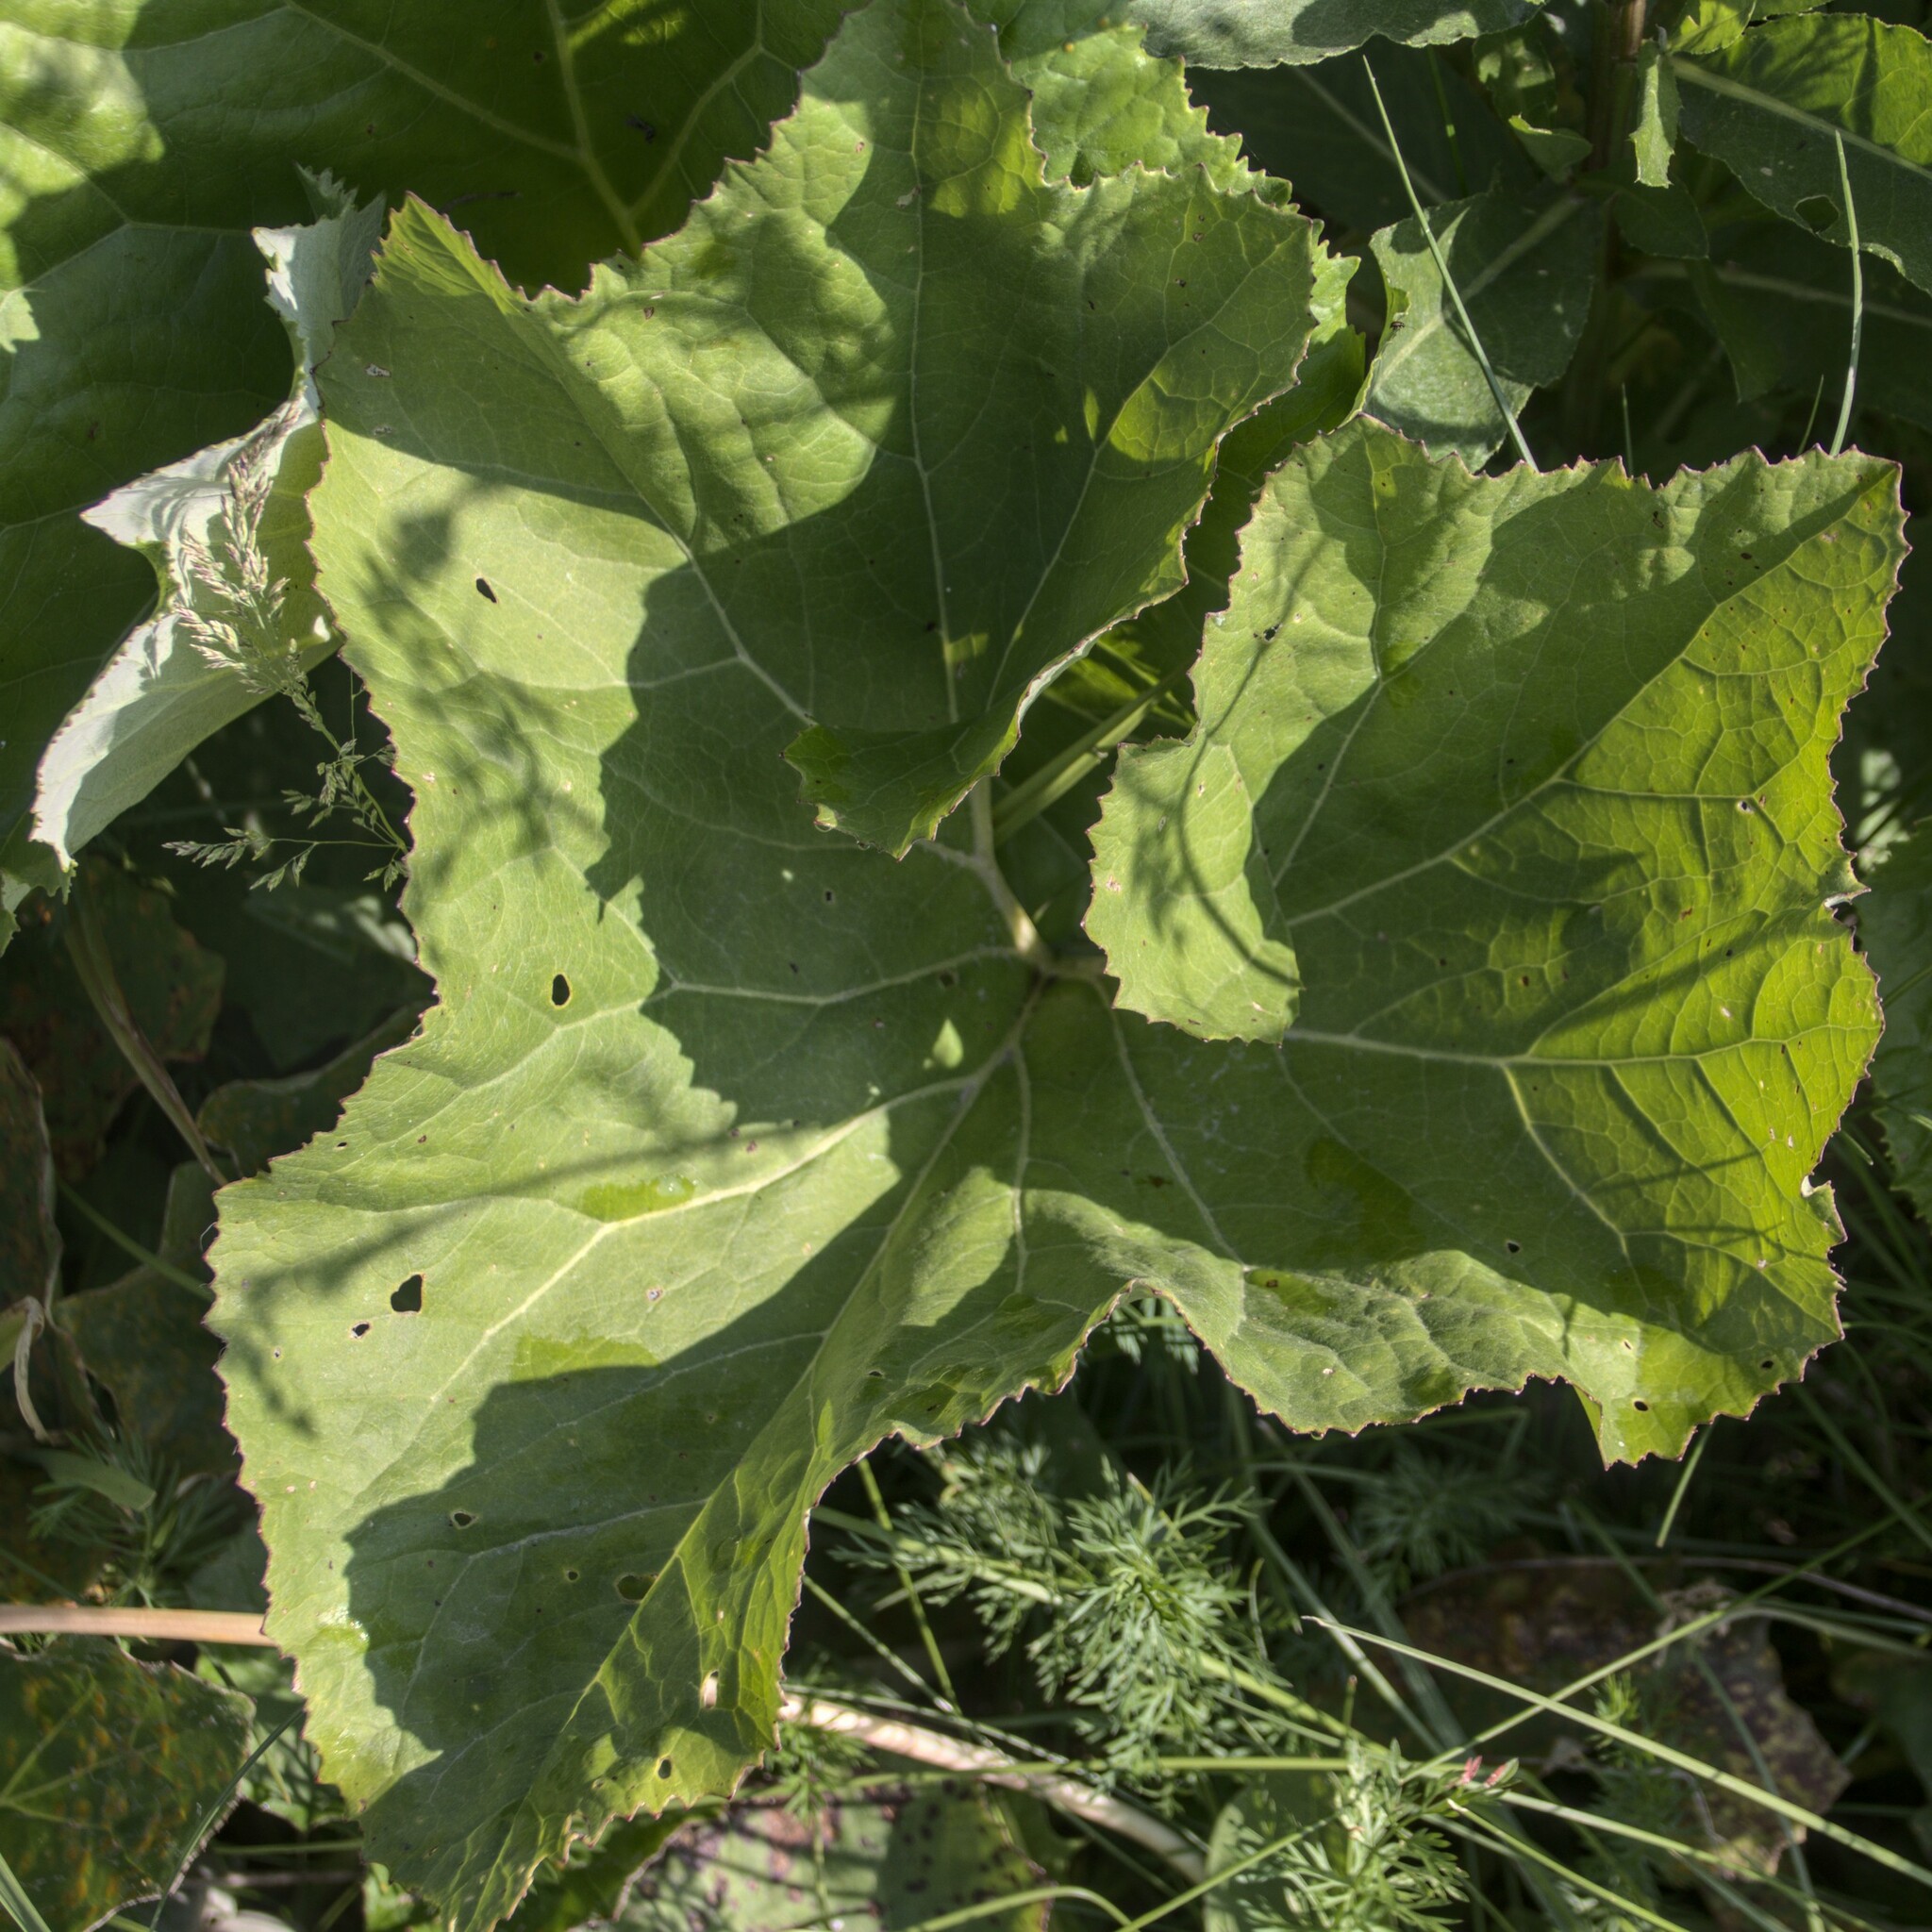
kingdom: Plantae
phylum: Tracheophyta
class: Magnoliopsida
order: Asterales
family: Asteraceae
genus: Petasites
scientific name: Petasites spurius
